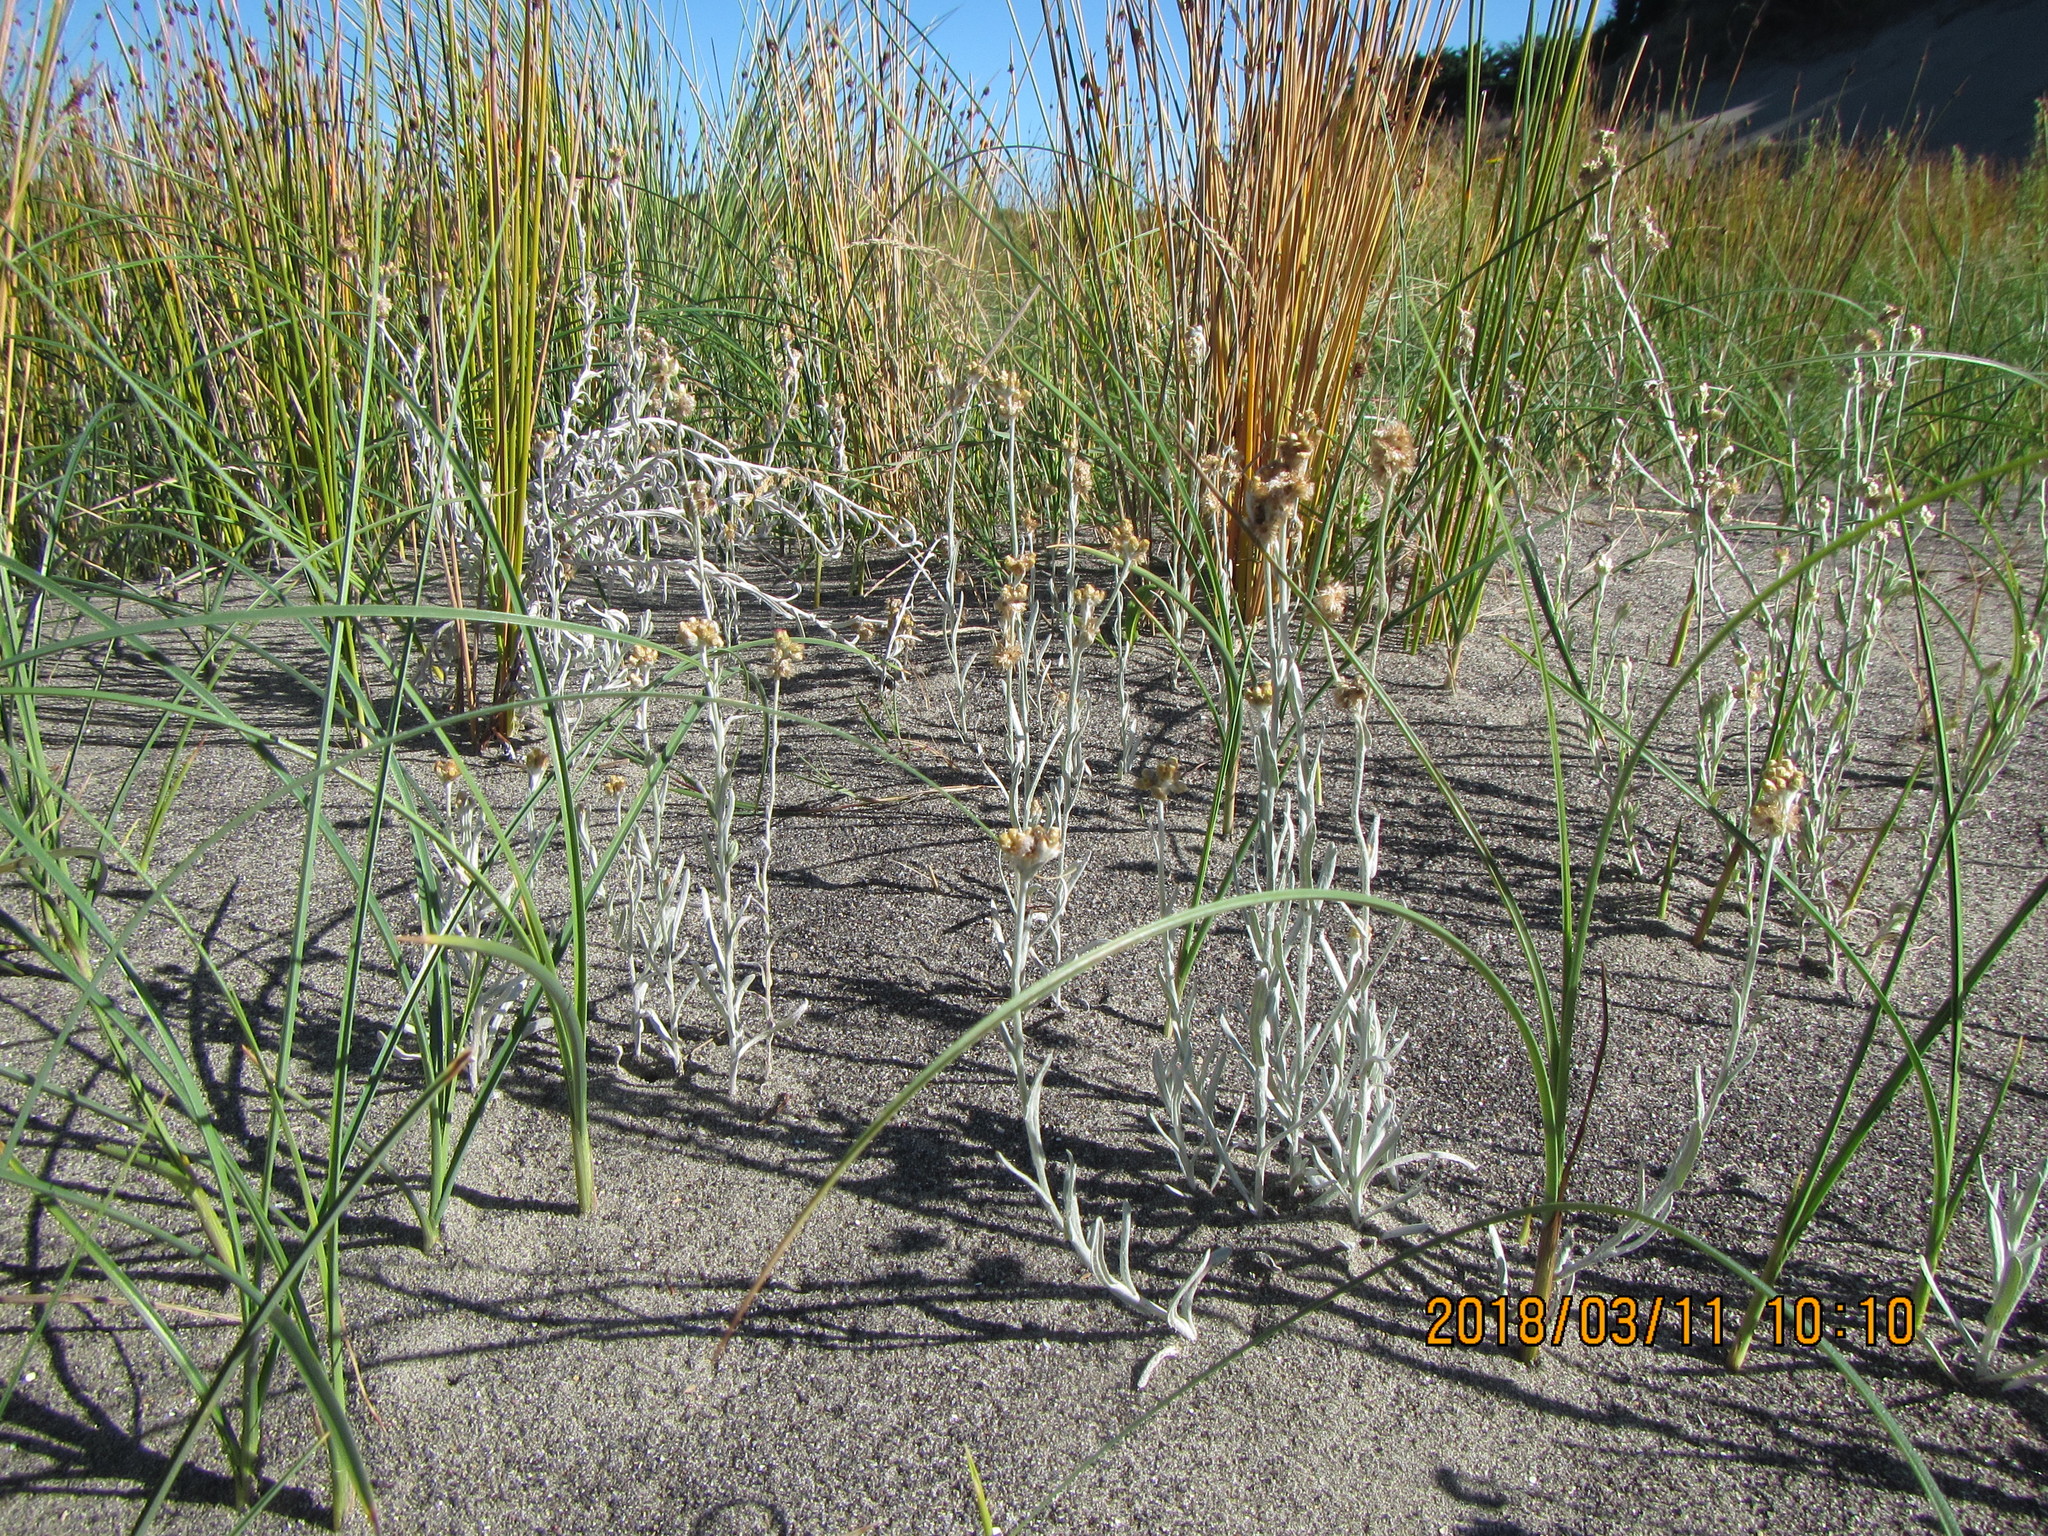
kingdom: Plantae
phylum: Tracheophyta
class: Magnoliopsida
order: Asterales
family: Asteraceae
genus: Helichrysum
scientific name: Helichrysum luteoalbum
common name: Daisy
